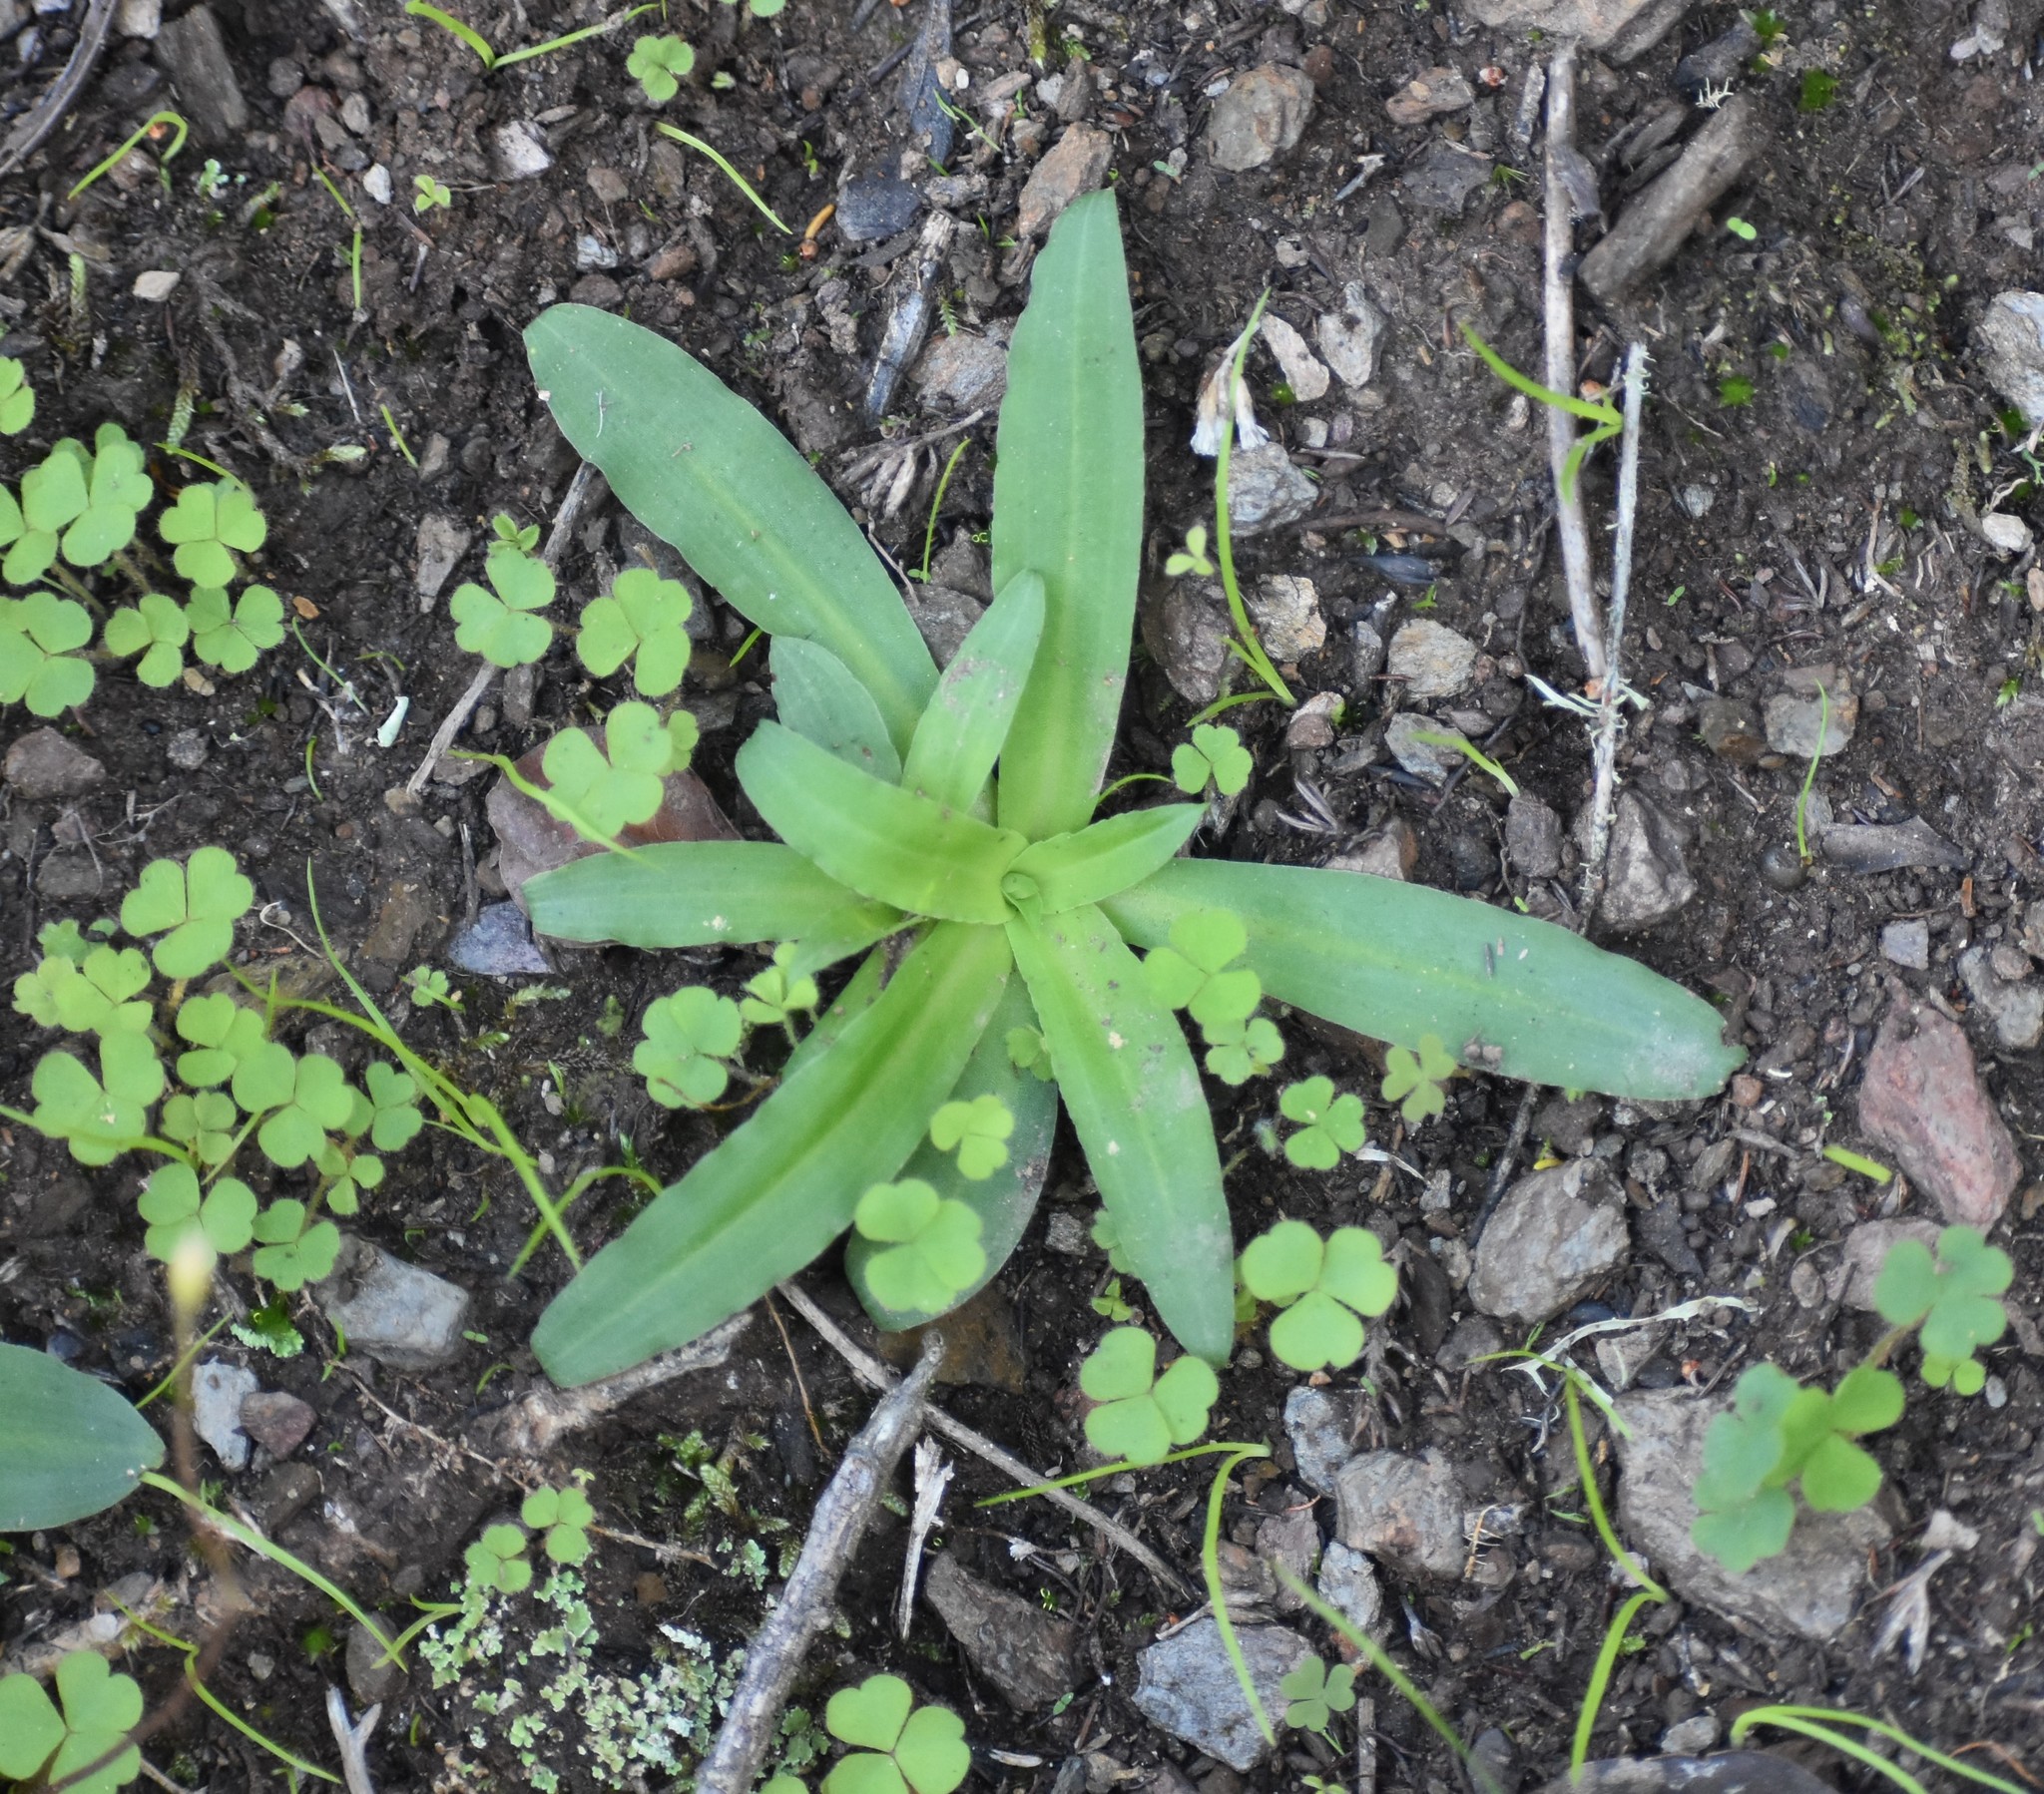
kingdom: Plantae
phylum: Tracheophyta
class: Liliopsida
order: Asparagales
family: Orchidaceae
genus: Disa
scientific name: Disa sagittalis
